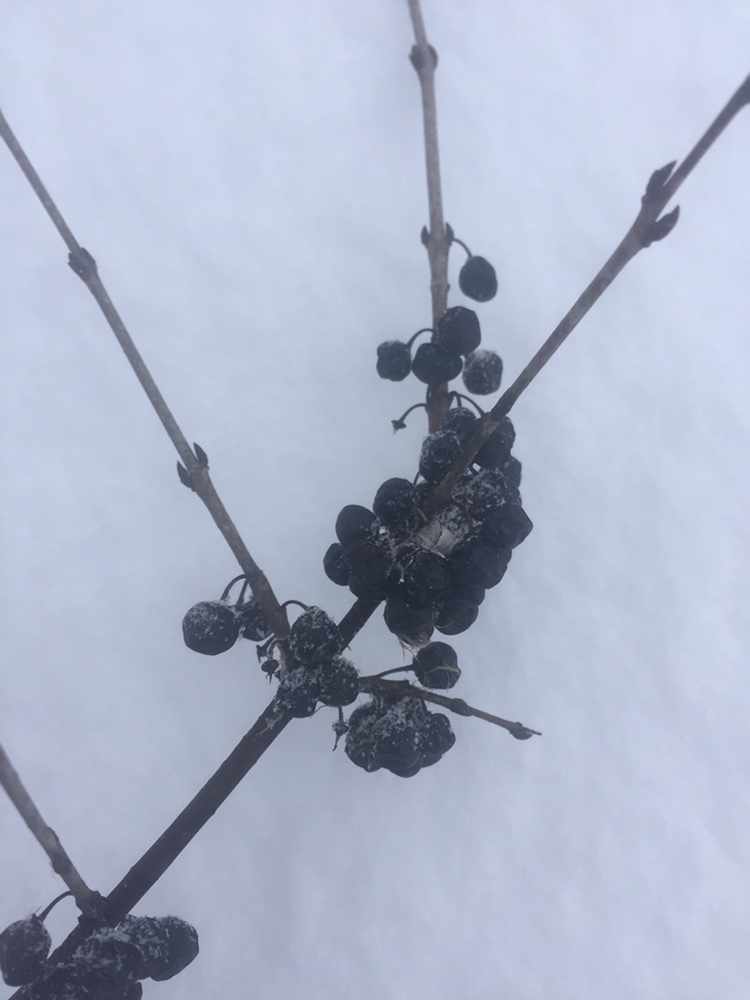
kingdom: Plantae
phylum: Tracheophyta
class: Magnoliopsida
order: Rosales
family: Rhamnaceae
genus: Rhamnus
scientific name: Rhamnus cathartica
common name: Common buckthorn
